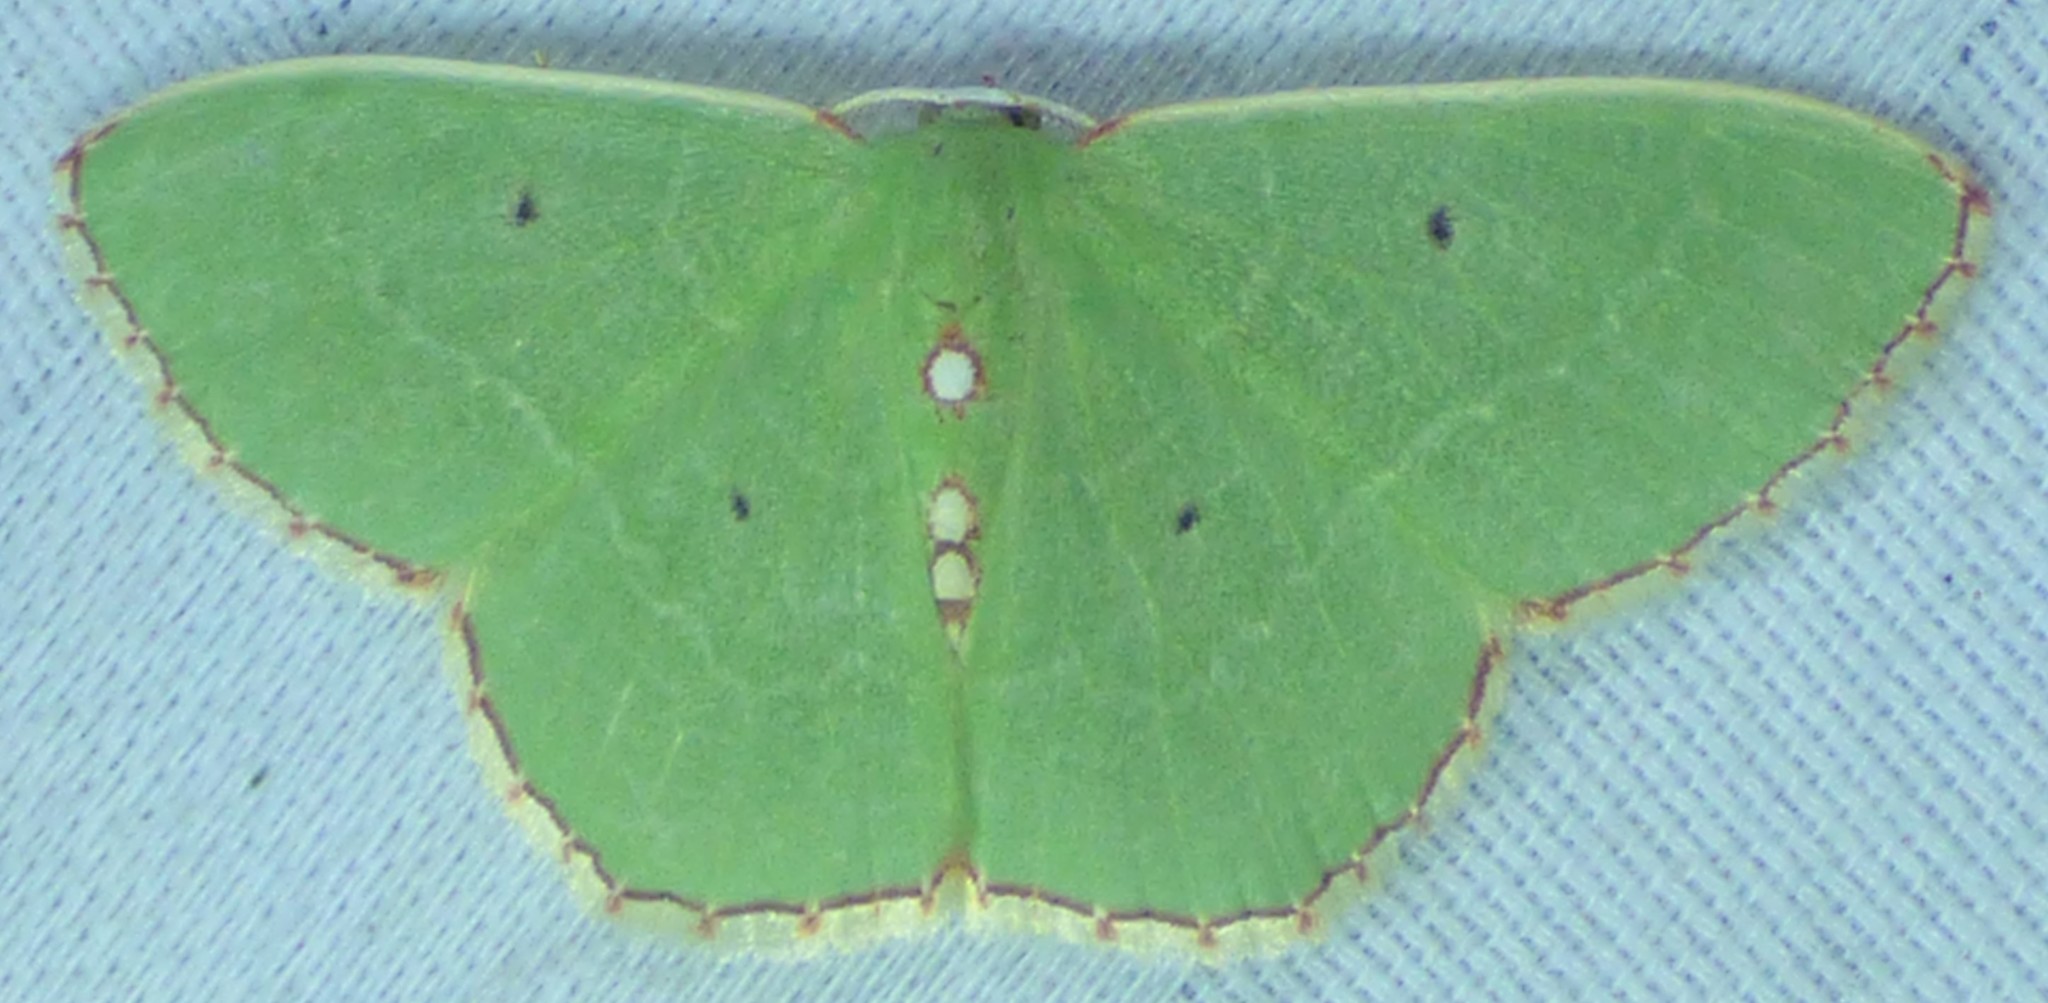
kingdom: Animalia
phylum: Arthropoda
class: Insecta
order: Lepidoptera
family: Geometridae
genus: Nemoria
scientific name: Nemoria lixaria
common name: Red-bordered emerald
